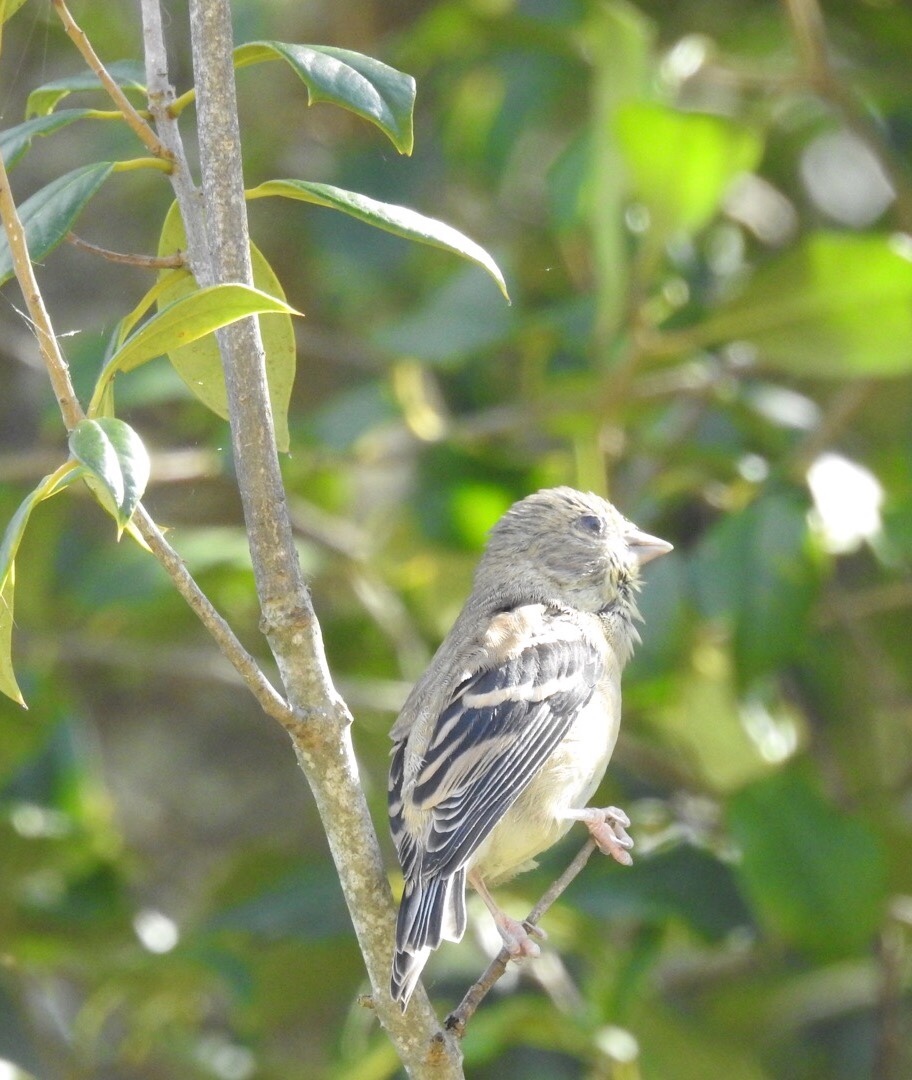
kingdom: Animalia
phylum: Chordata
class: Aves
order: Passeriformes
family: Fringillidae
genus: Spinus
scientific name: Spinus tristis
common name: American goldfinch
